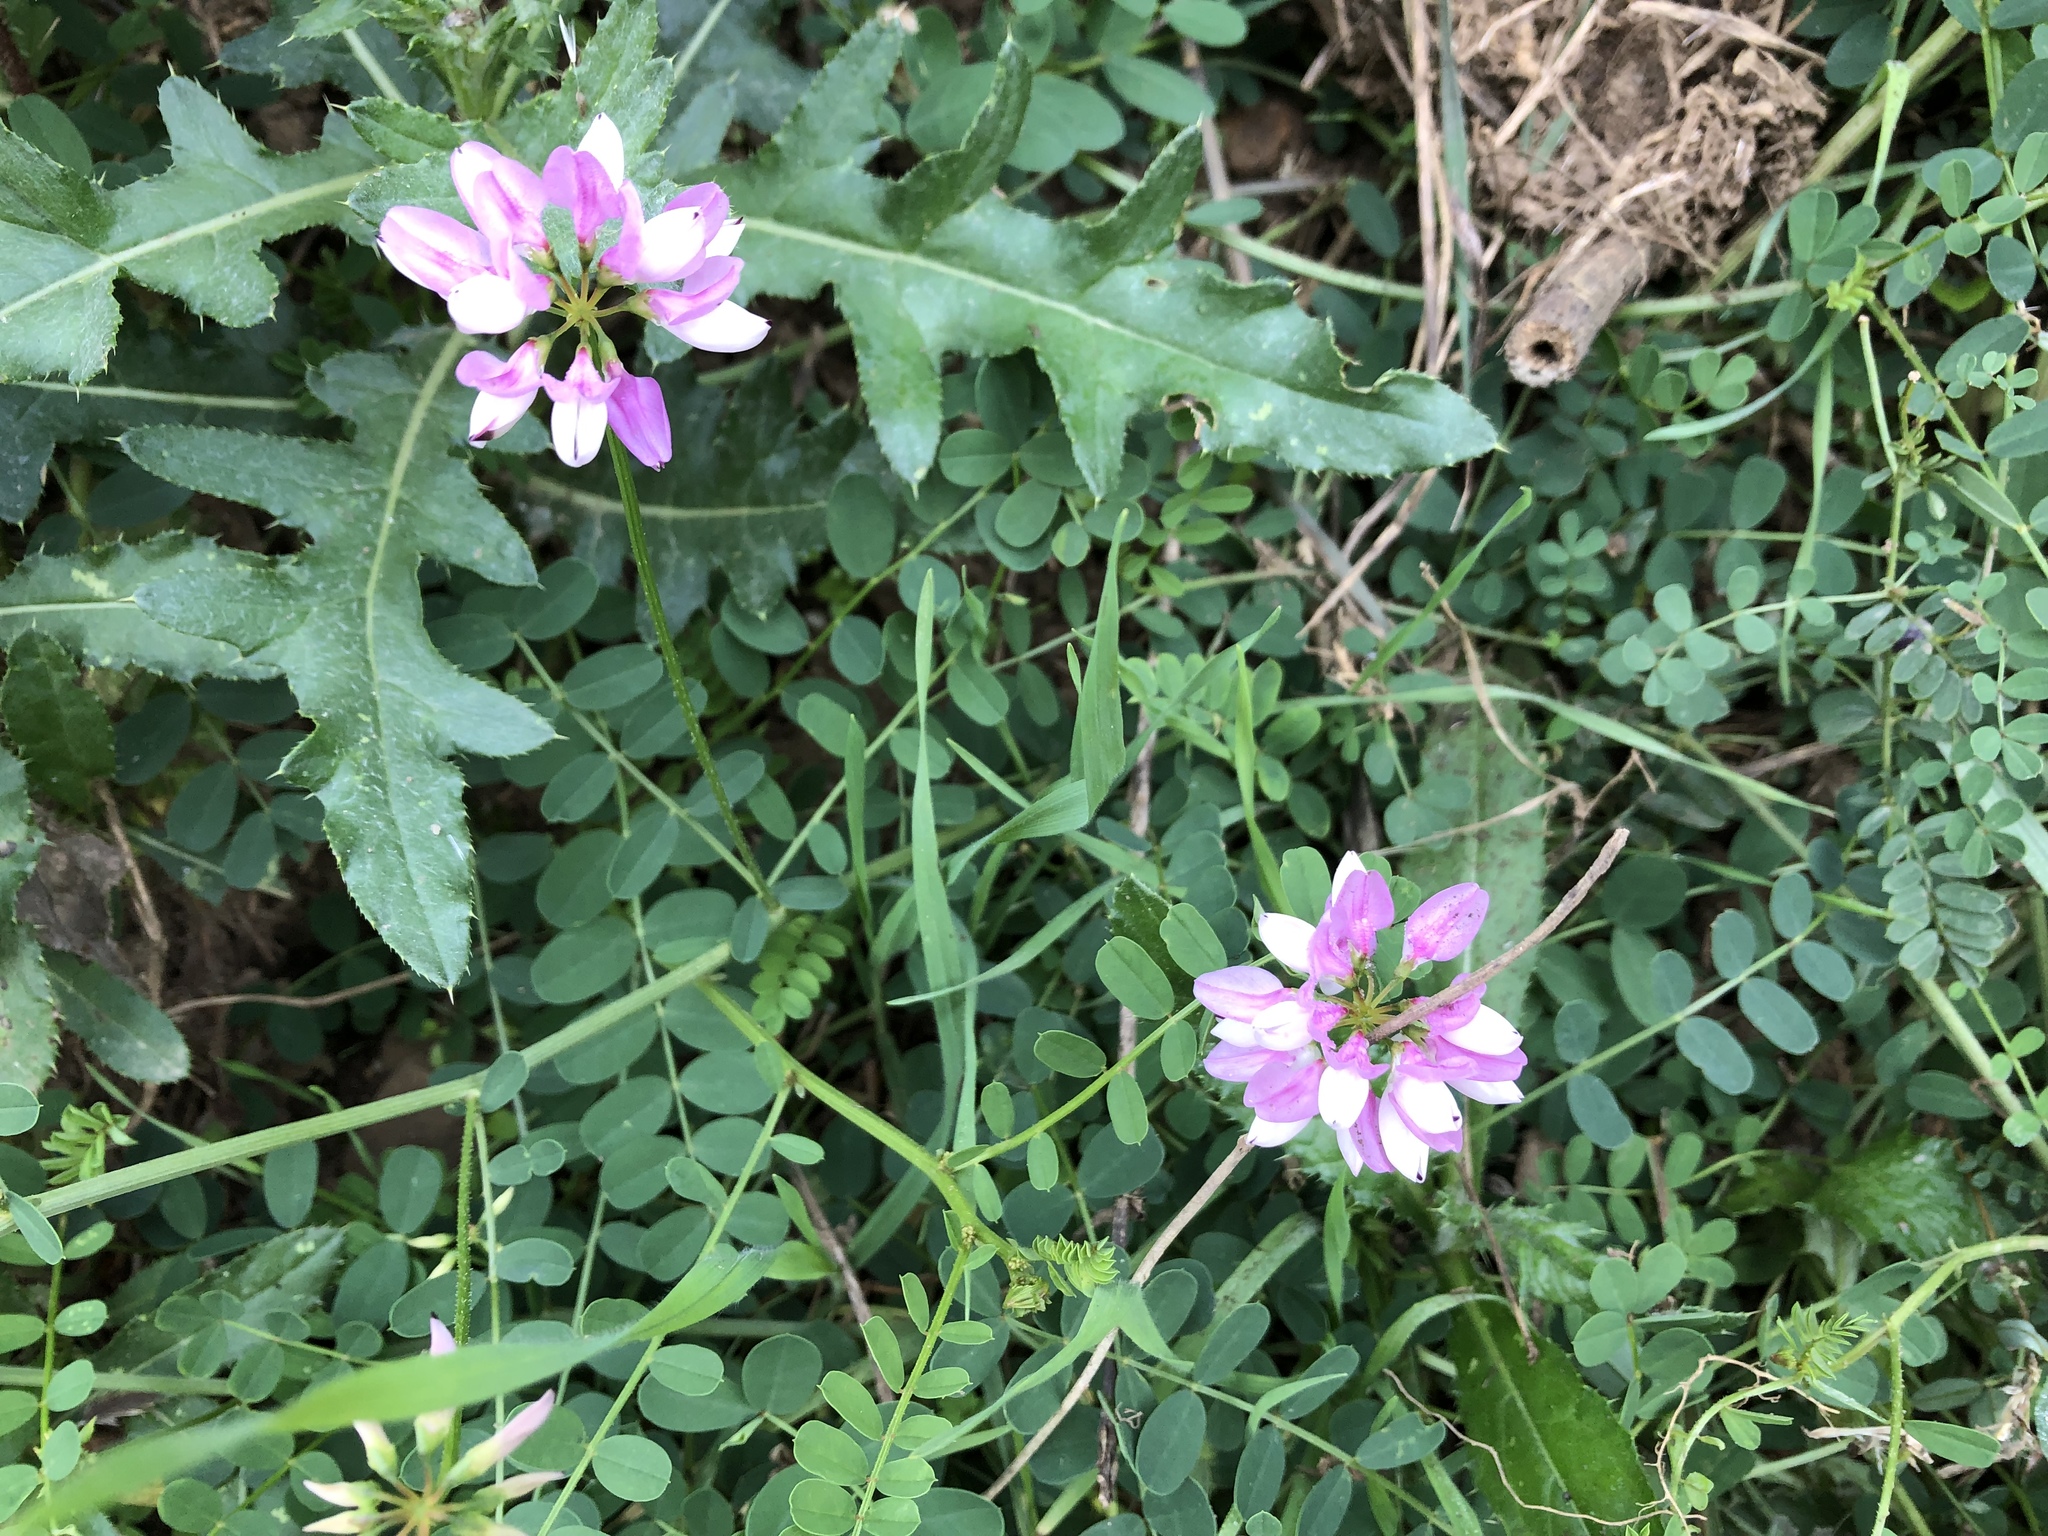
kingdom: Plantae
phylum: Tracheophyta
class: Magnoliopsida
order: Fabales
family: Fabaceae
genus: Coronilla
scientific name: Coronilla varia
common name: Crownvetch
